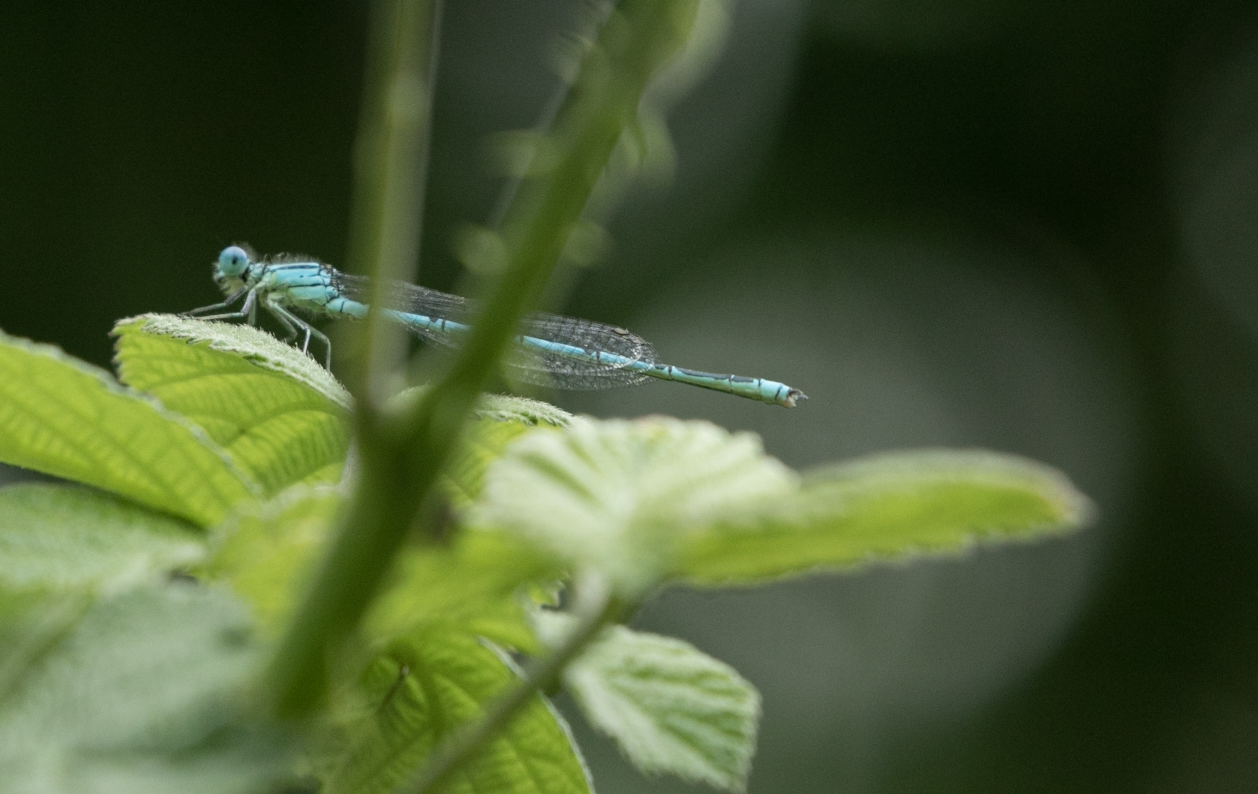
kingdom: Animalia
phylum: Arthropoda
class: Insecta
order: Odonata
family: Coenagrionidae
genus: Erythromma
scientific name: Erythromma lindenii
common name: Blue-eye
